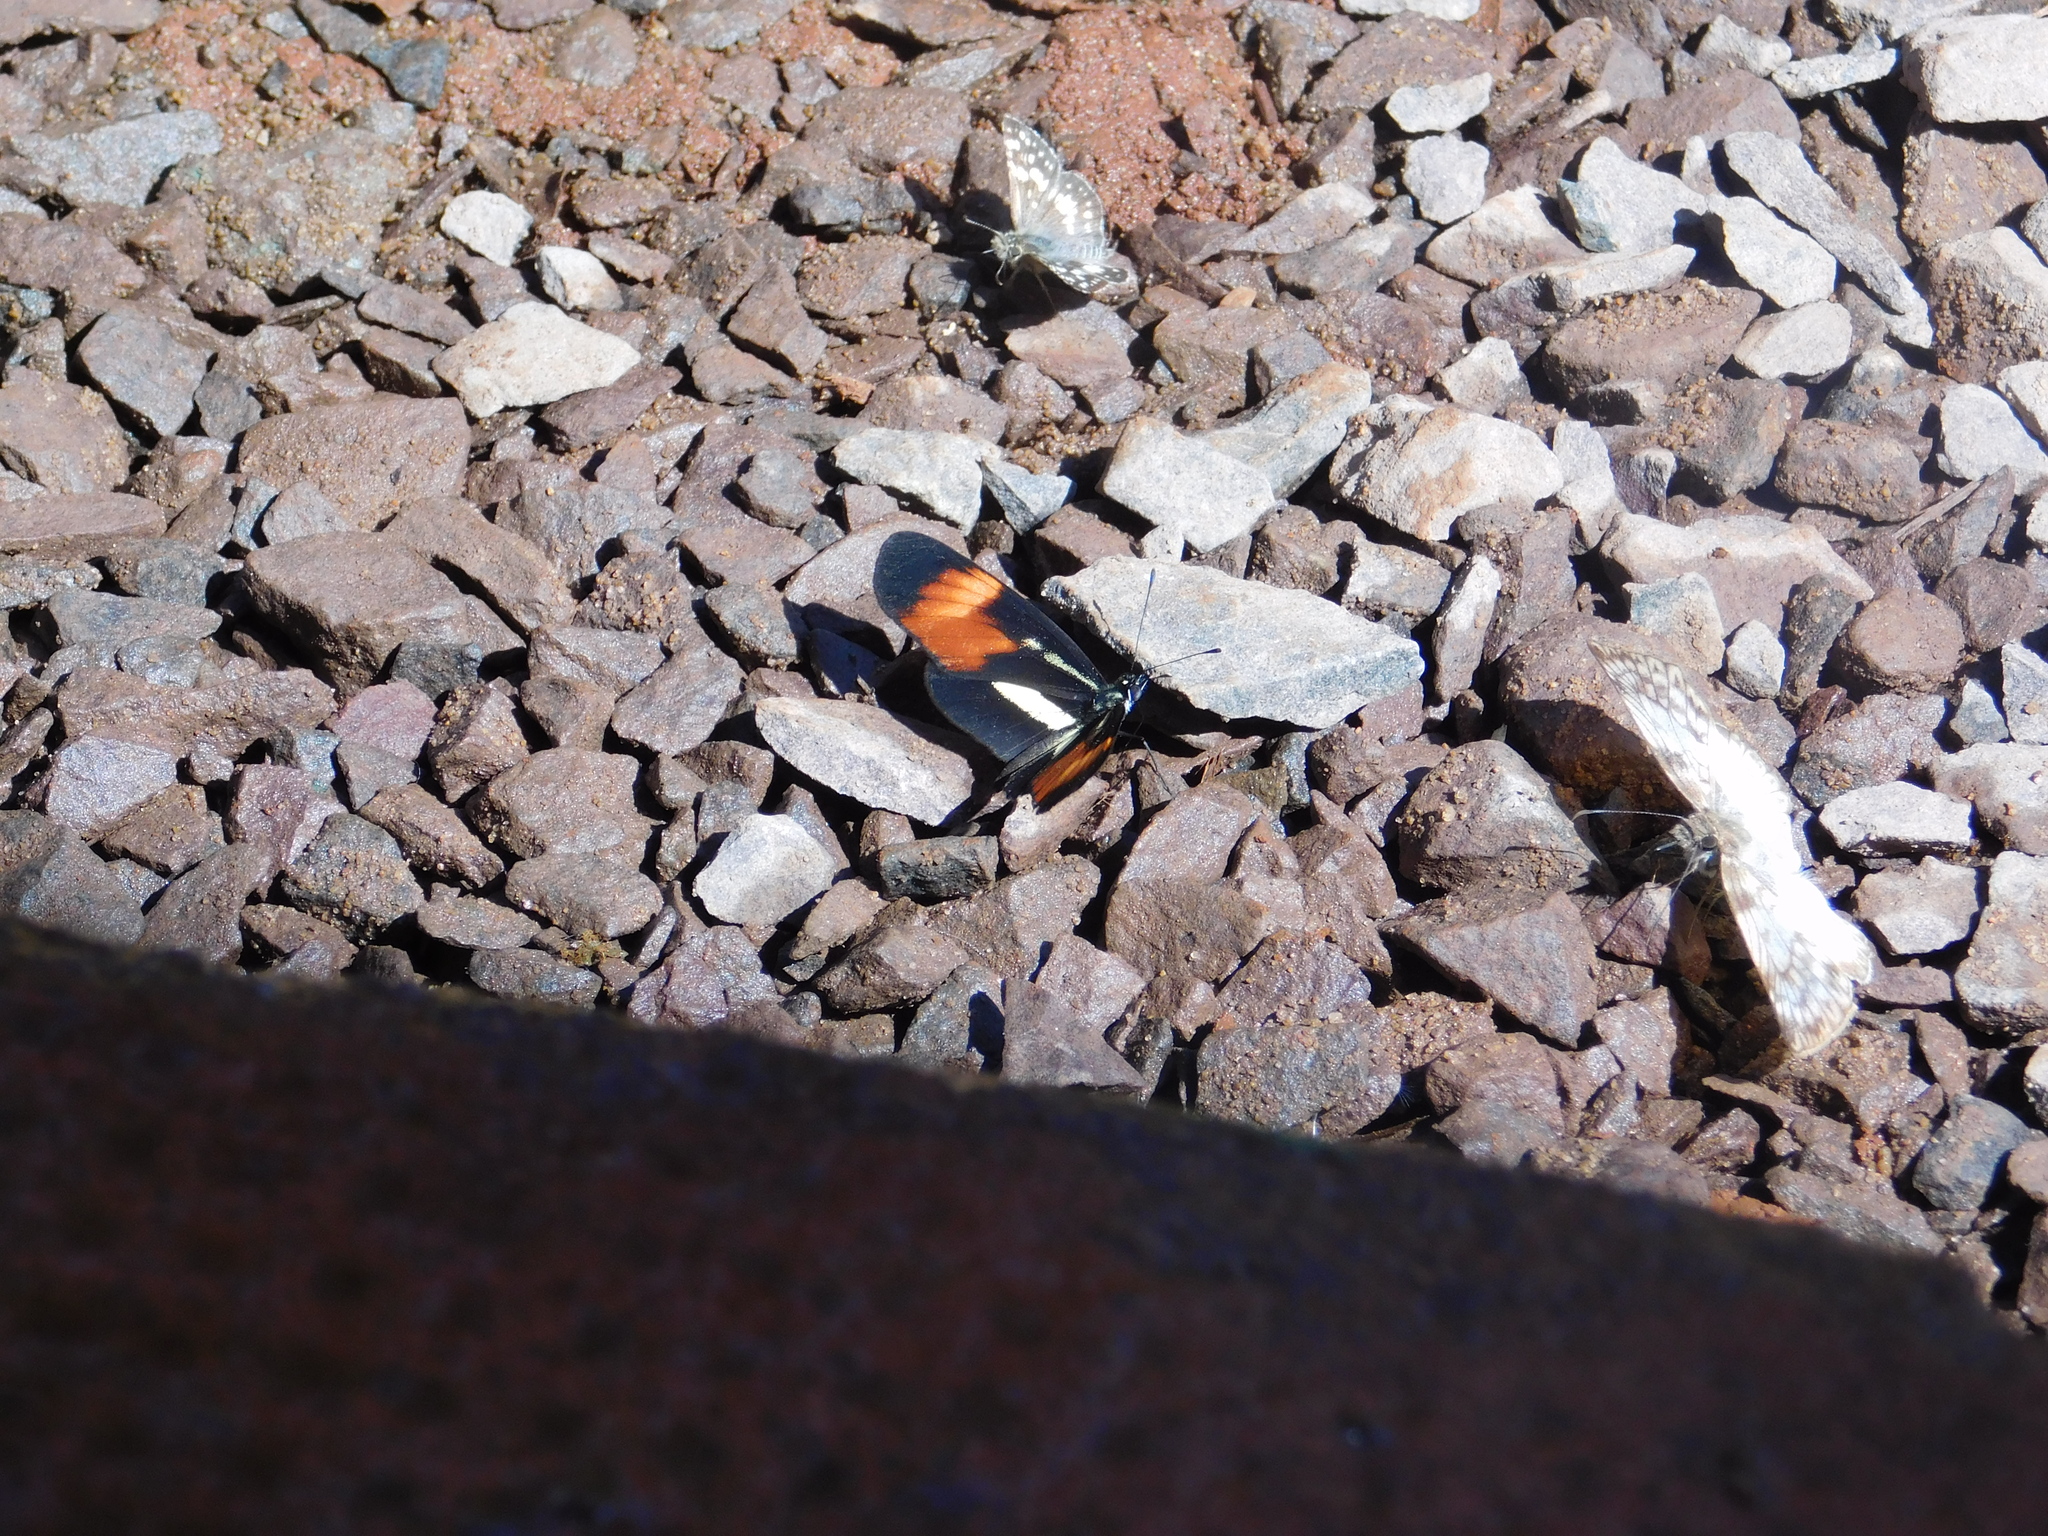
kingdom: Animalia
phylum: Arthropoda
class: Insecta
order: Lepidoptera
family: Nymphalidae
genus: Eresia
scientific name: Eresia lansdorfi
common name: Lansdorf's crescent
